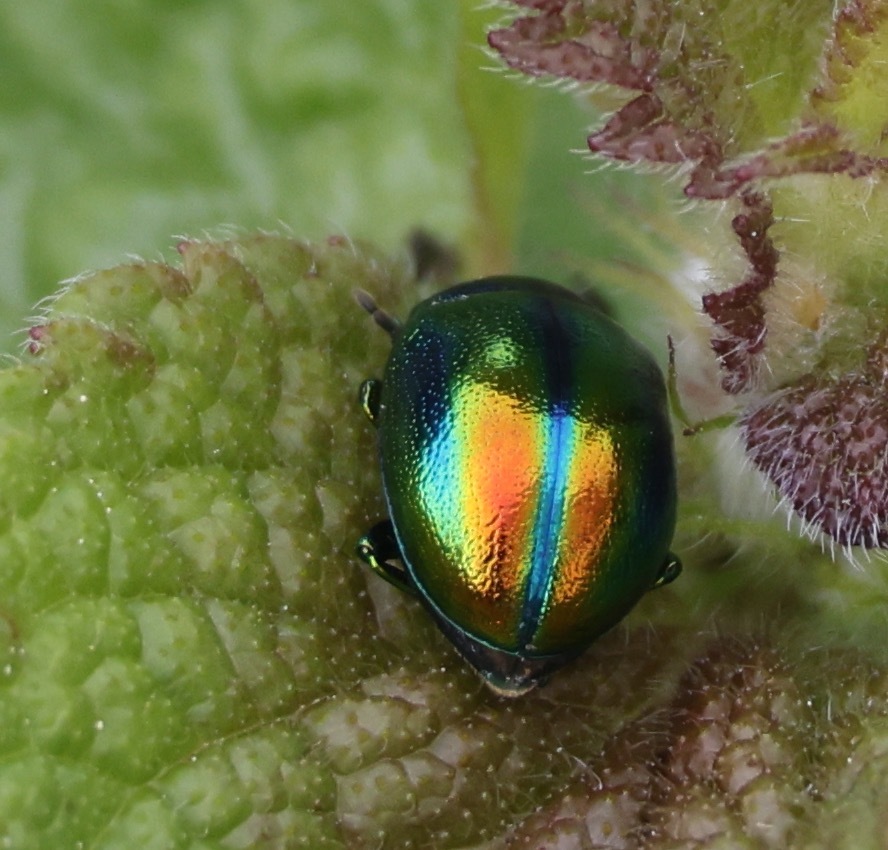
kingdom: Animalia
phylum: Arthropoda
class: Insecta
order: Coleoptera
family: Chrysomelidae
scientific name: Chrysomelidae
